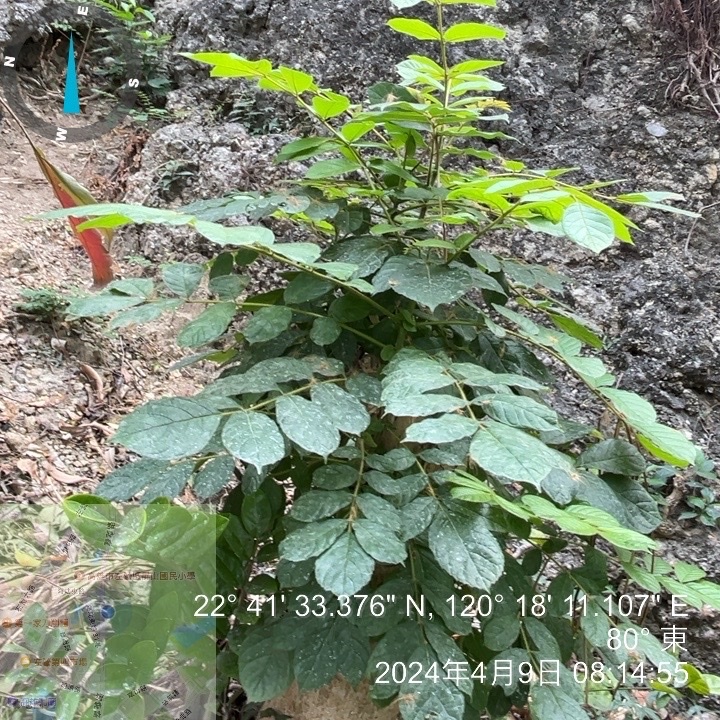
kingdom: Plantae
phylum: Tracheophyta
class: Magnoliopsida
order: Lamiales
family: Bignoniaceae
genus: Spathodea
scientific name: Spathodea campanulata
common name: African tuliptree
